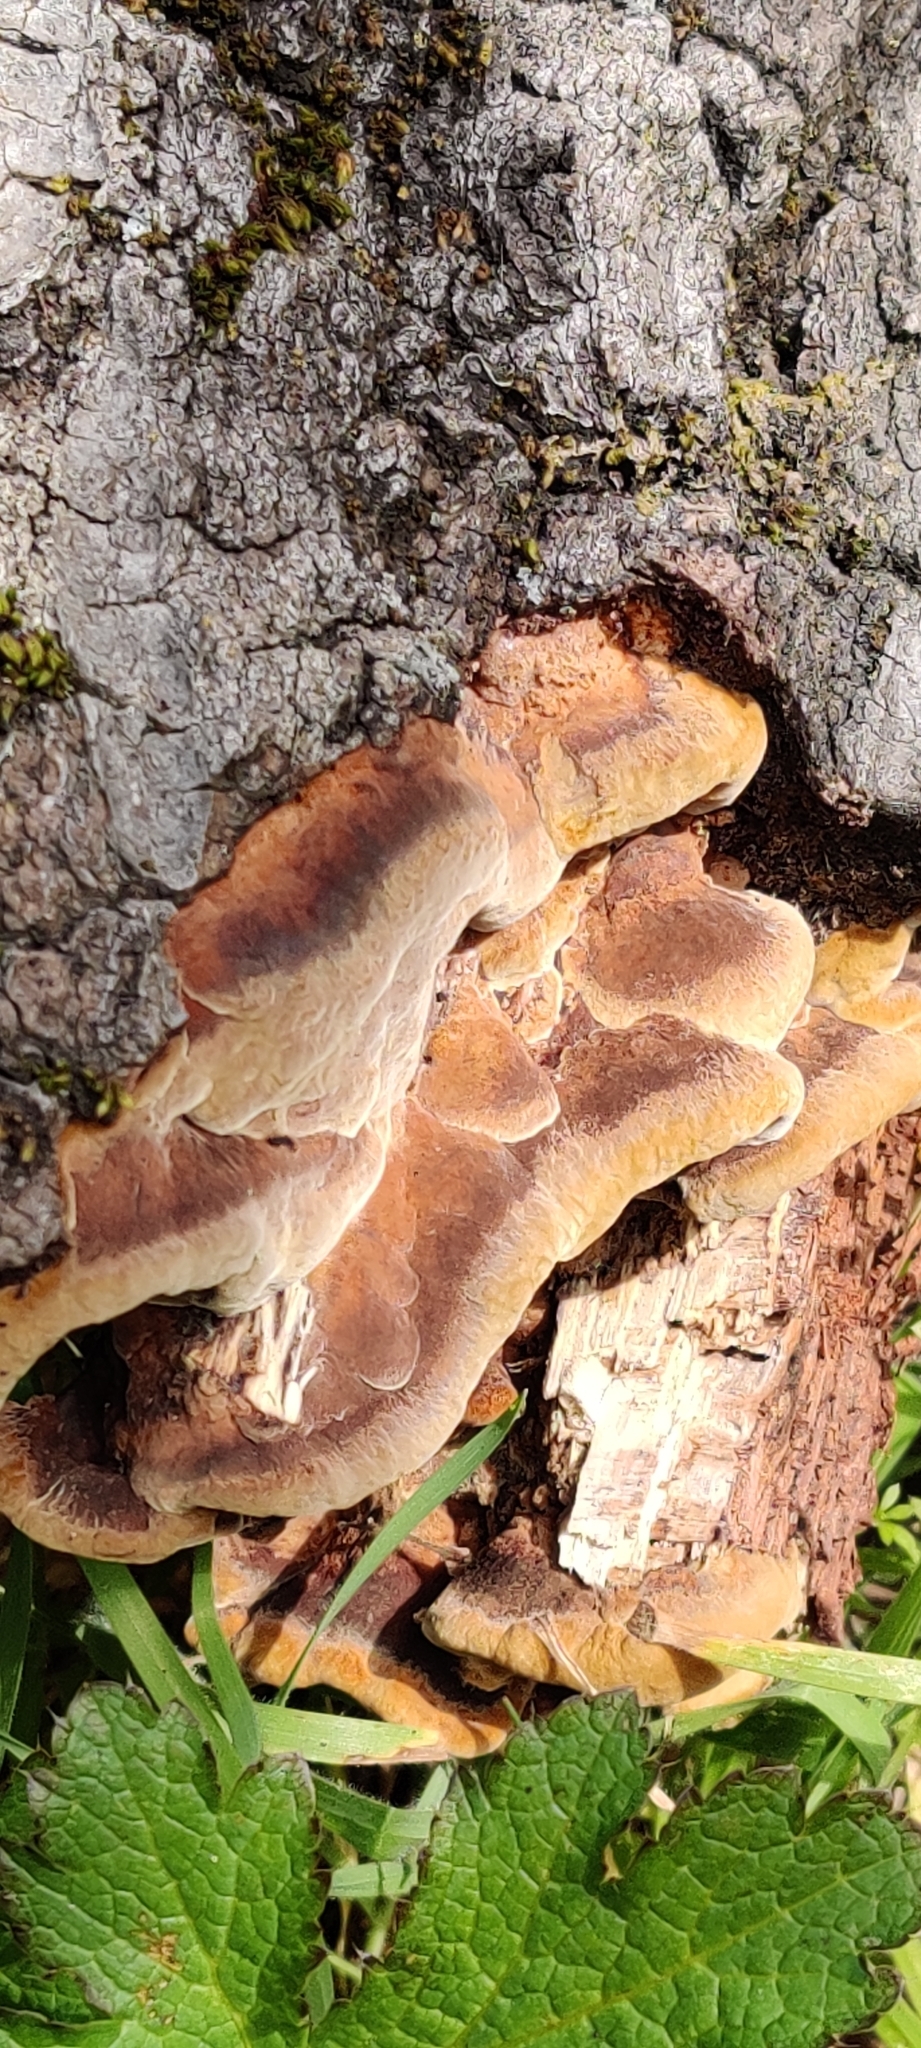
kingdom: Fungi
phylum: Basidiomycota
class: Agaricomycetes
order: Hymenochaetales
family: Hymenochaetaceae
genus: Phellinus
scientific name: Phellinus gilvus
